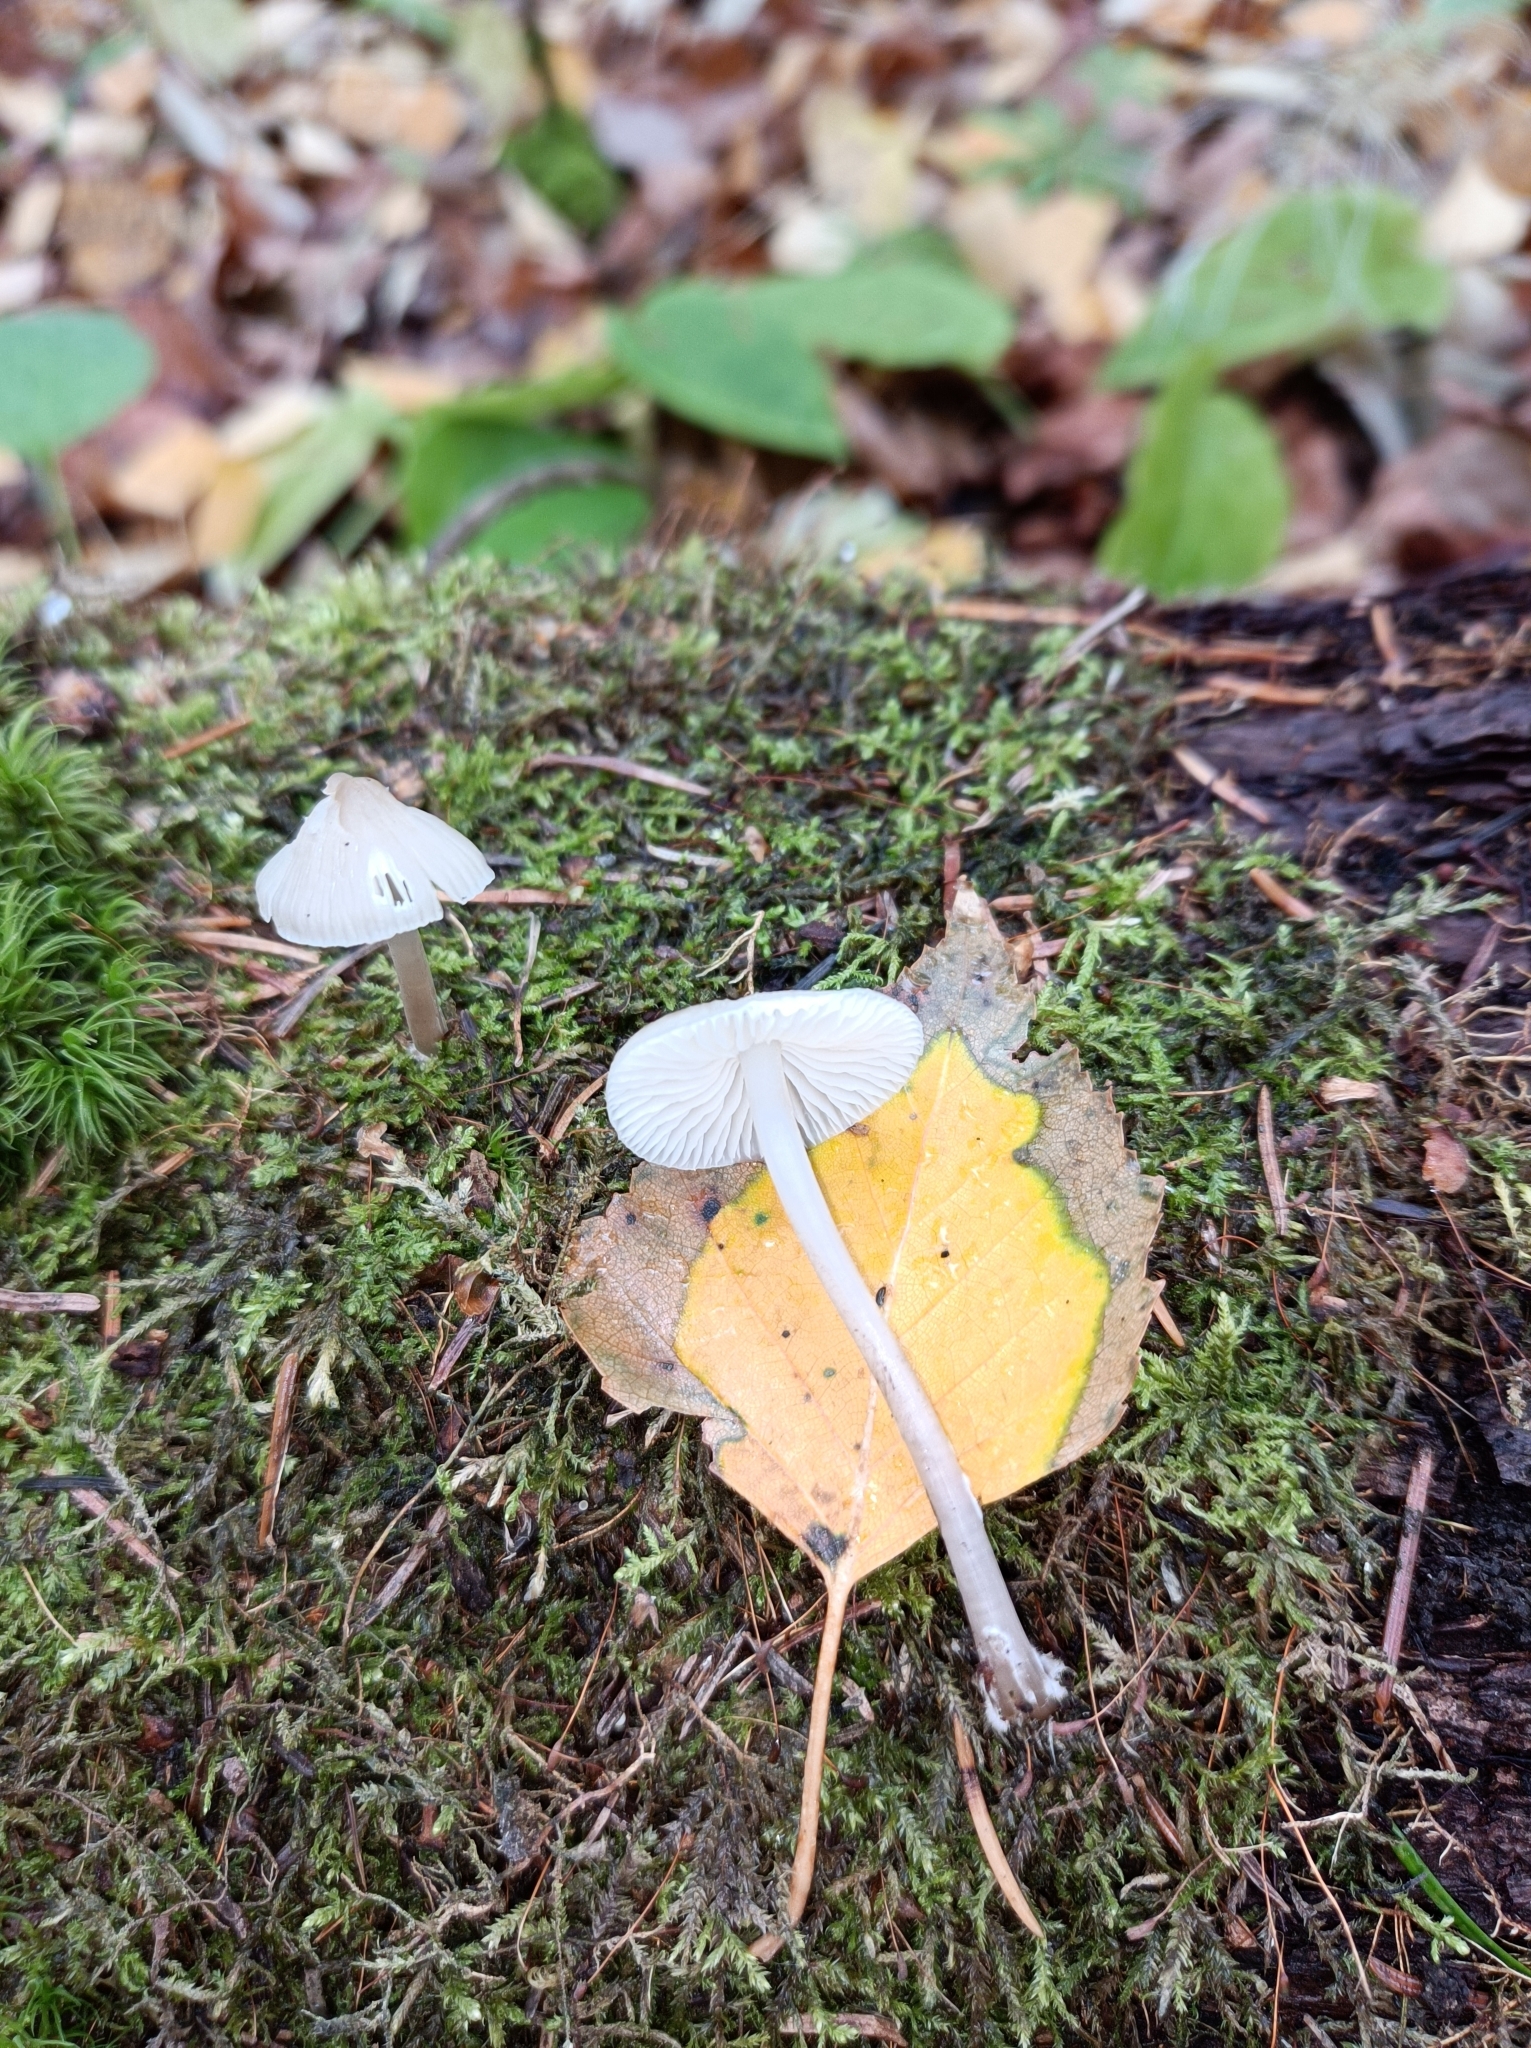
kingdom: Fungi
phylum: Basidiomycota
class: Agaricomycetes
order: Agaricales
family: Mycenaceae
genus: Mycena
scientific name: Mycena galericulata
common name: Bonnet mycena
